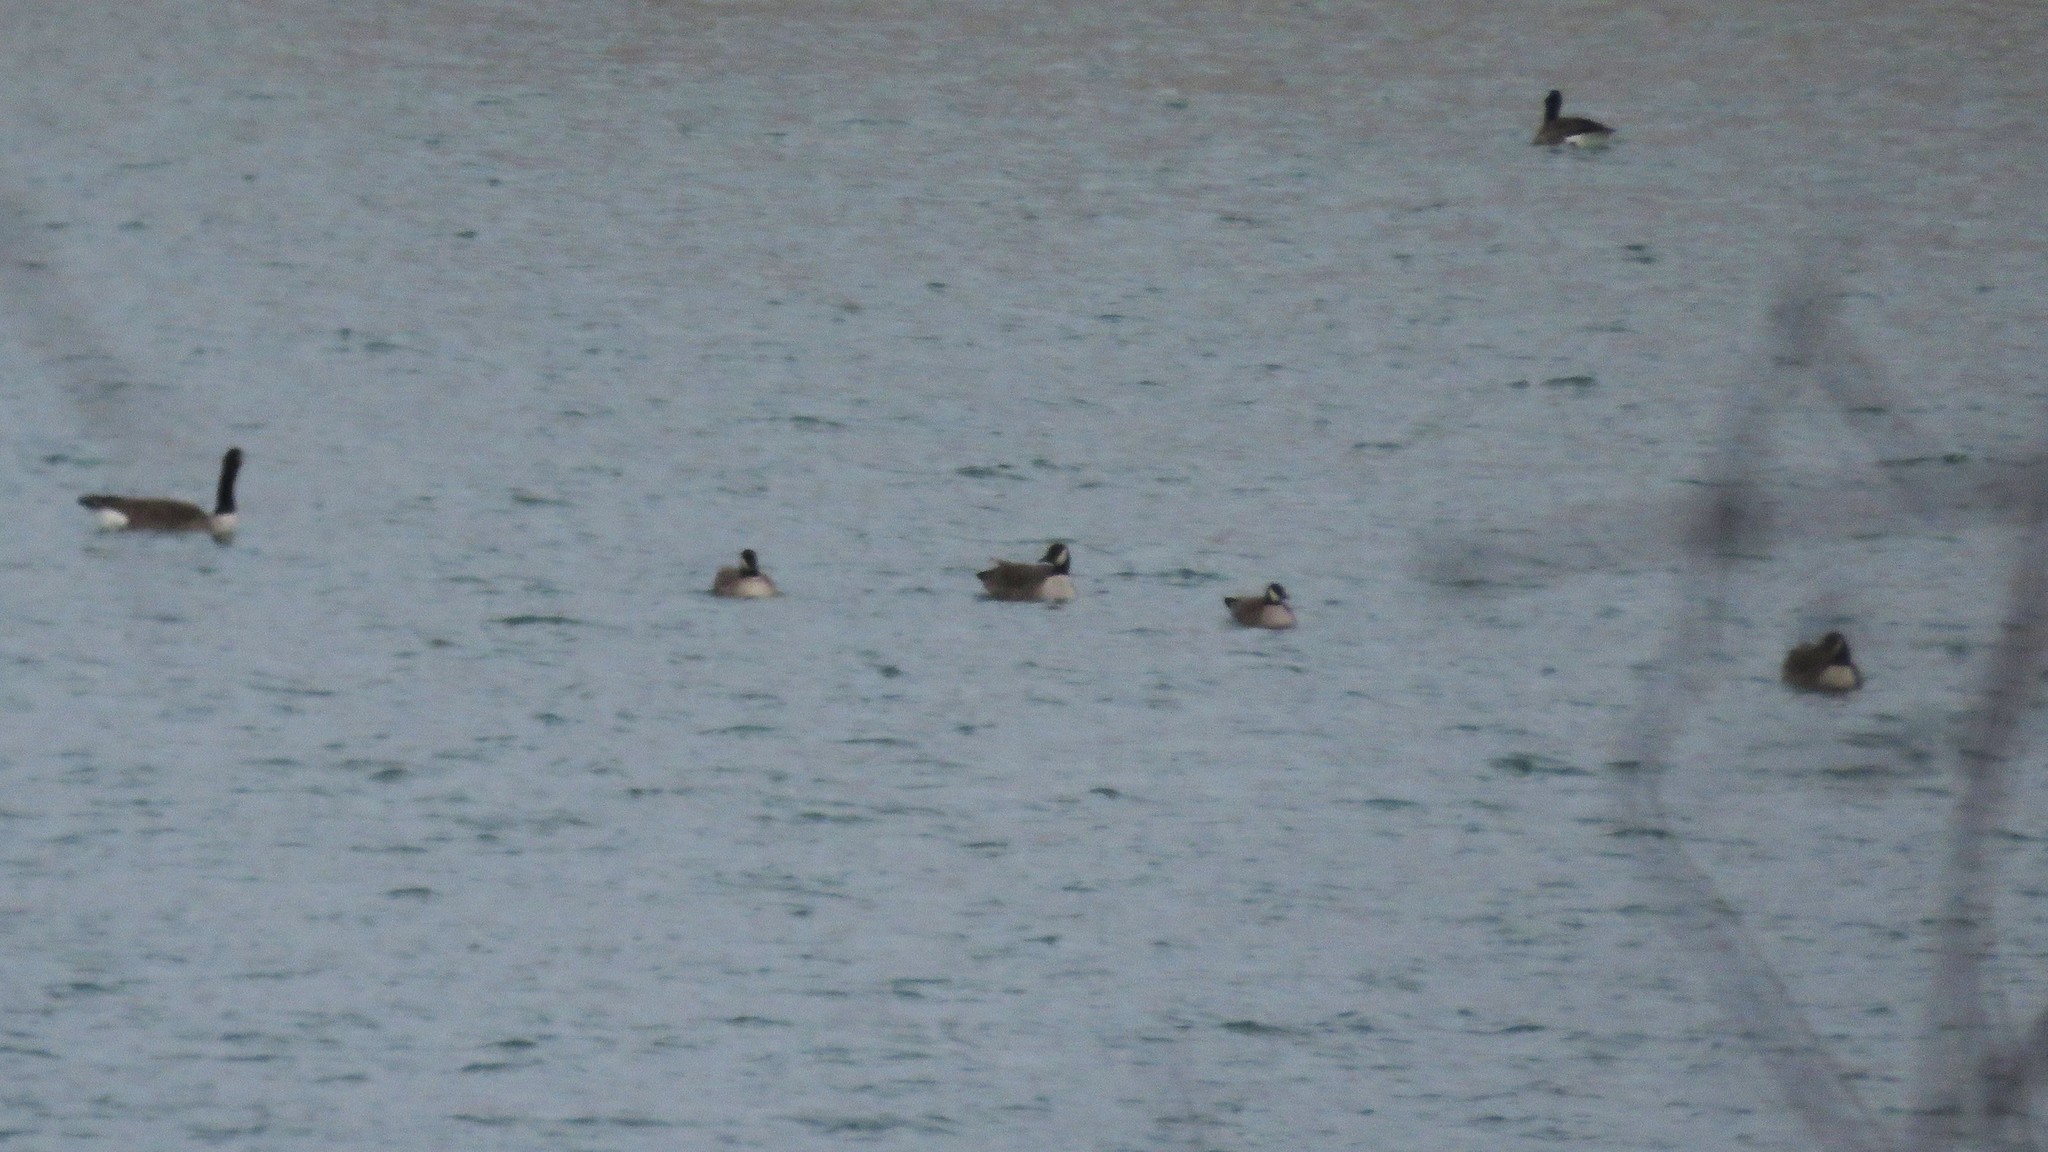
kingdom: Animalia
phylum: Chordata
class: Aves
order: Anseriformes
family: Anatidae
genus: Branta
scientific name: Branta hutchinsii
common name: Cackling goose
